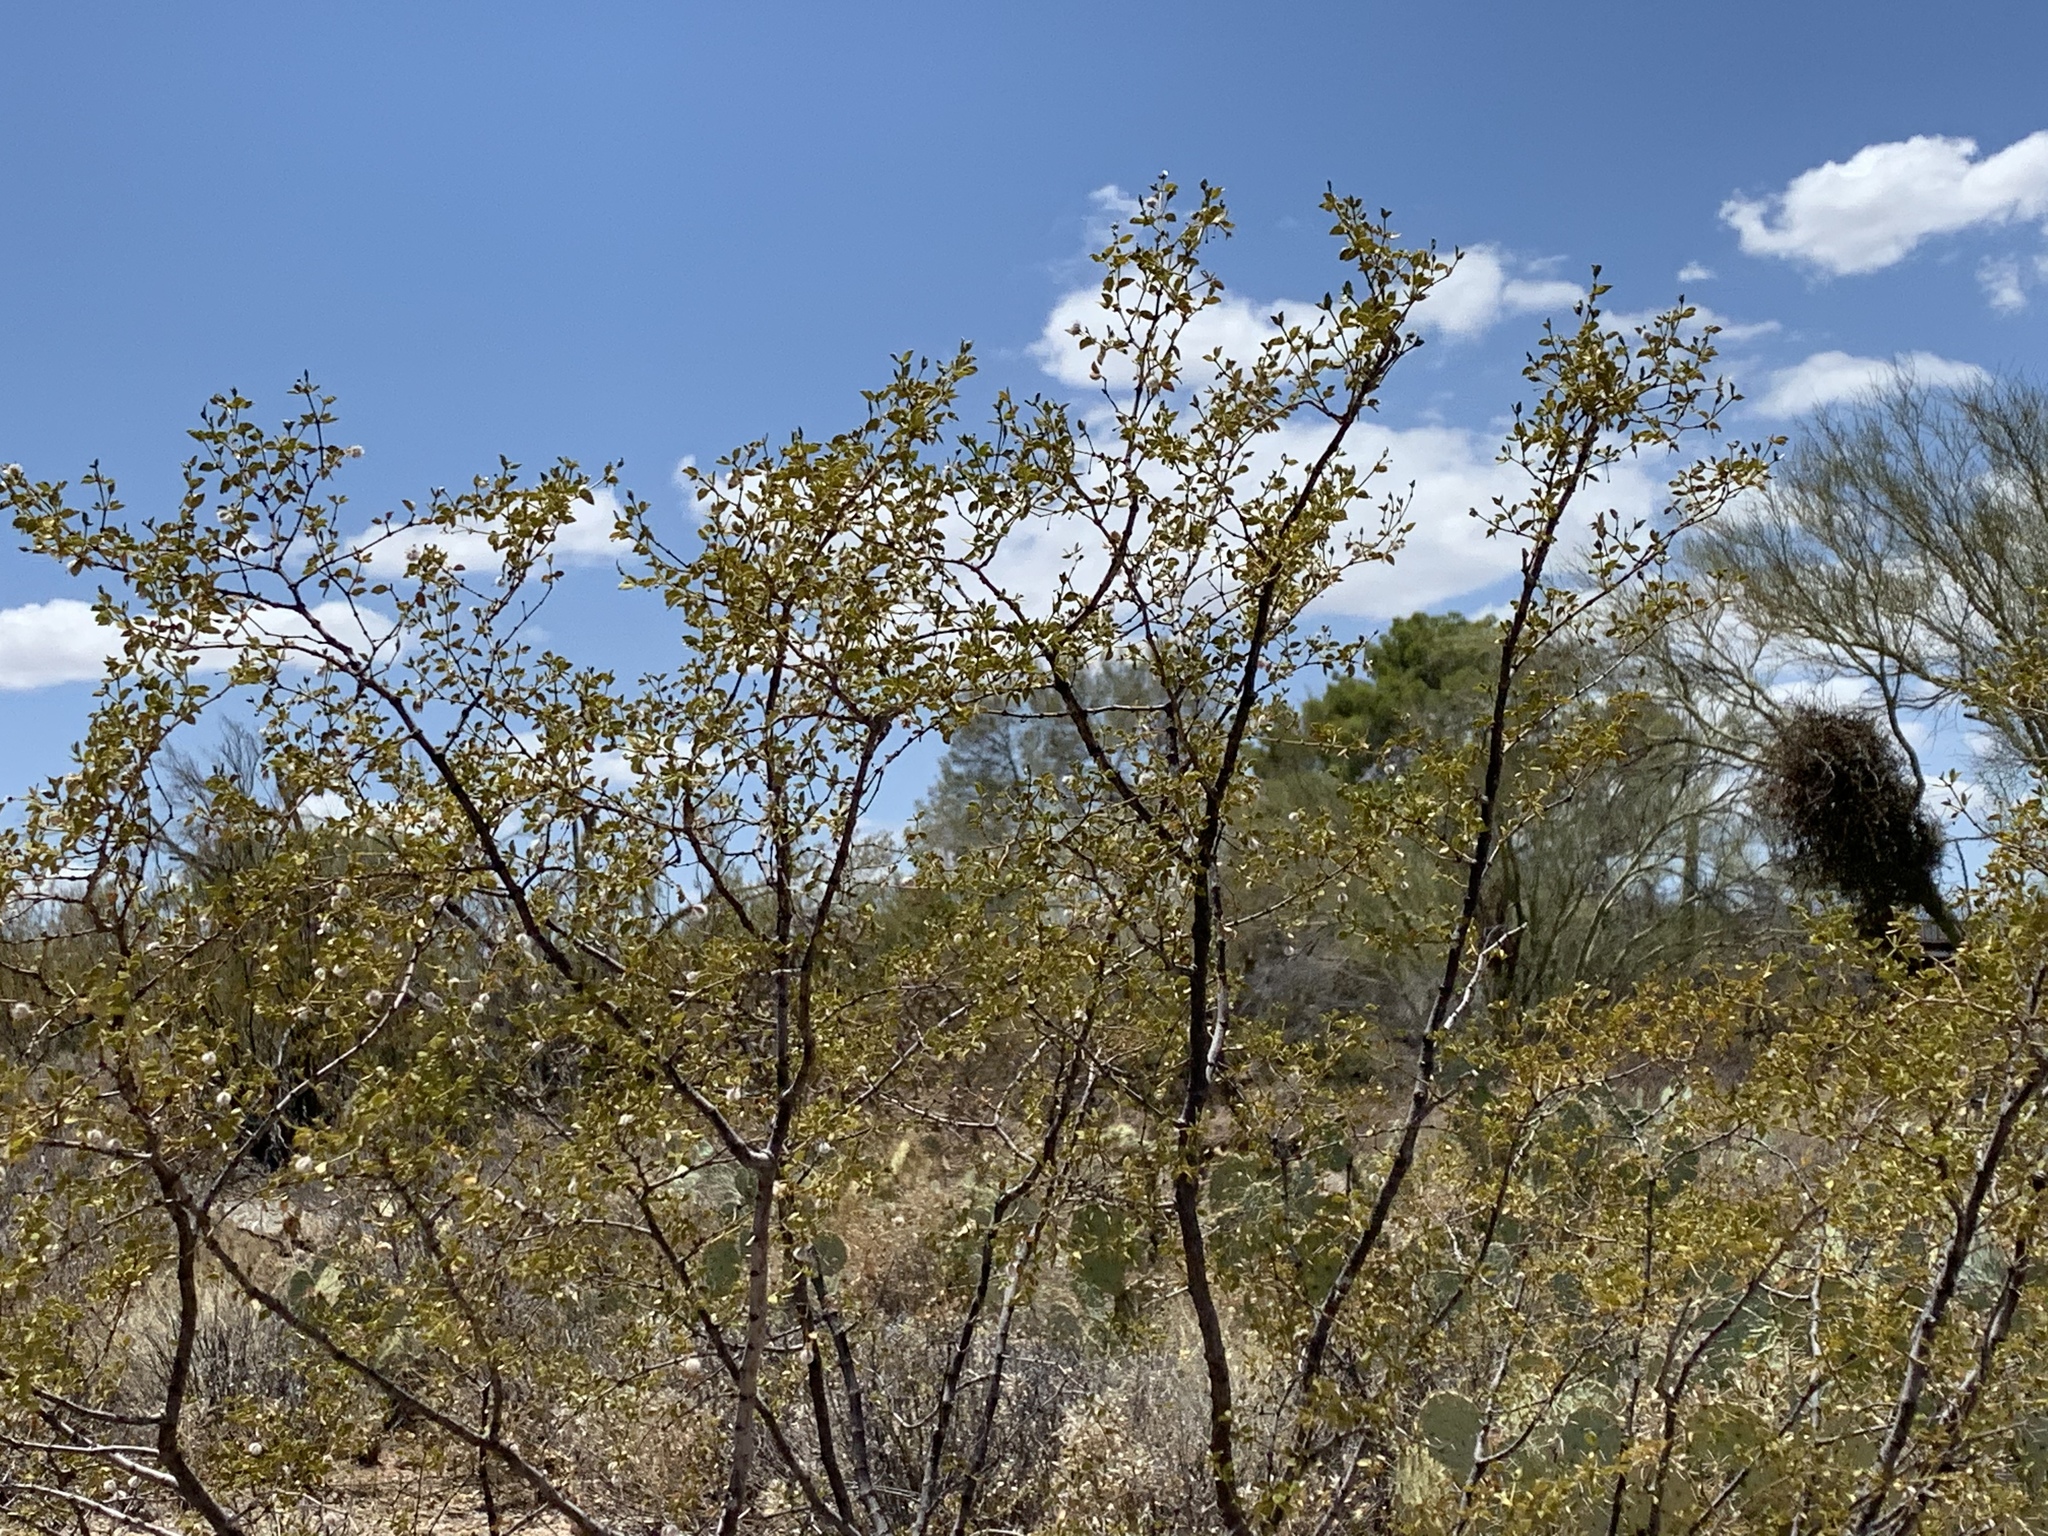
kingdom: Plantae
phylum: Tracheophyta
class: Magnoliopsida
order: Zygophyllales
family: Zygophyllaceae
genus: Larrea
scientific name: Larrea tridentata
